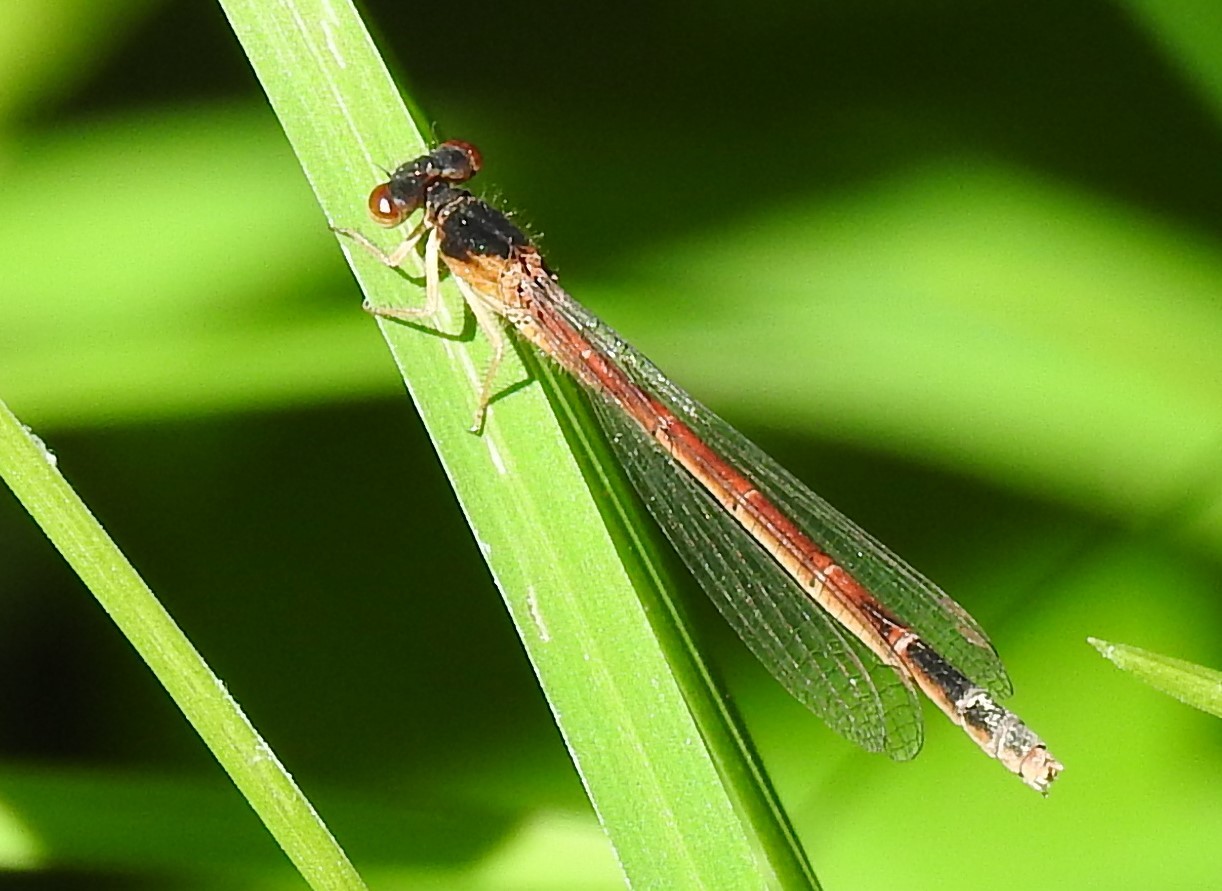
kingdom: Animalia
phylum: Arthropoda
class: Insecta
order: Odonata
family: Coenagrionidae
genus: Amphiagrion
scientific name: Amphiagrion saucium
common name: Eastern red damsel
